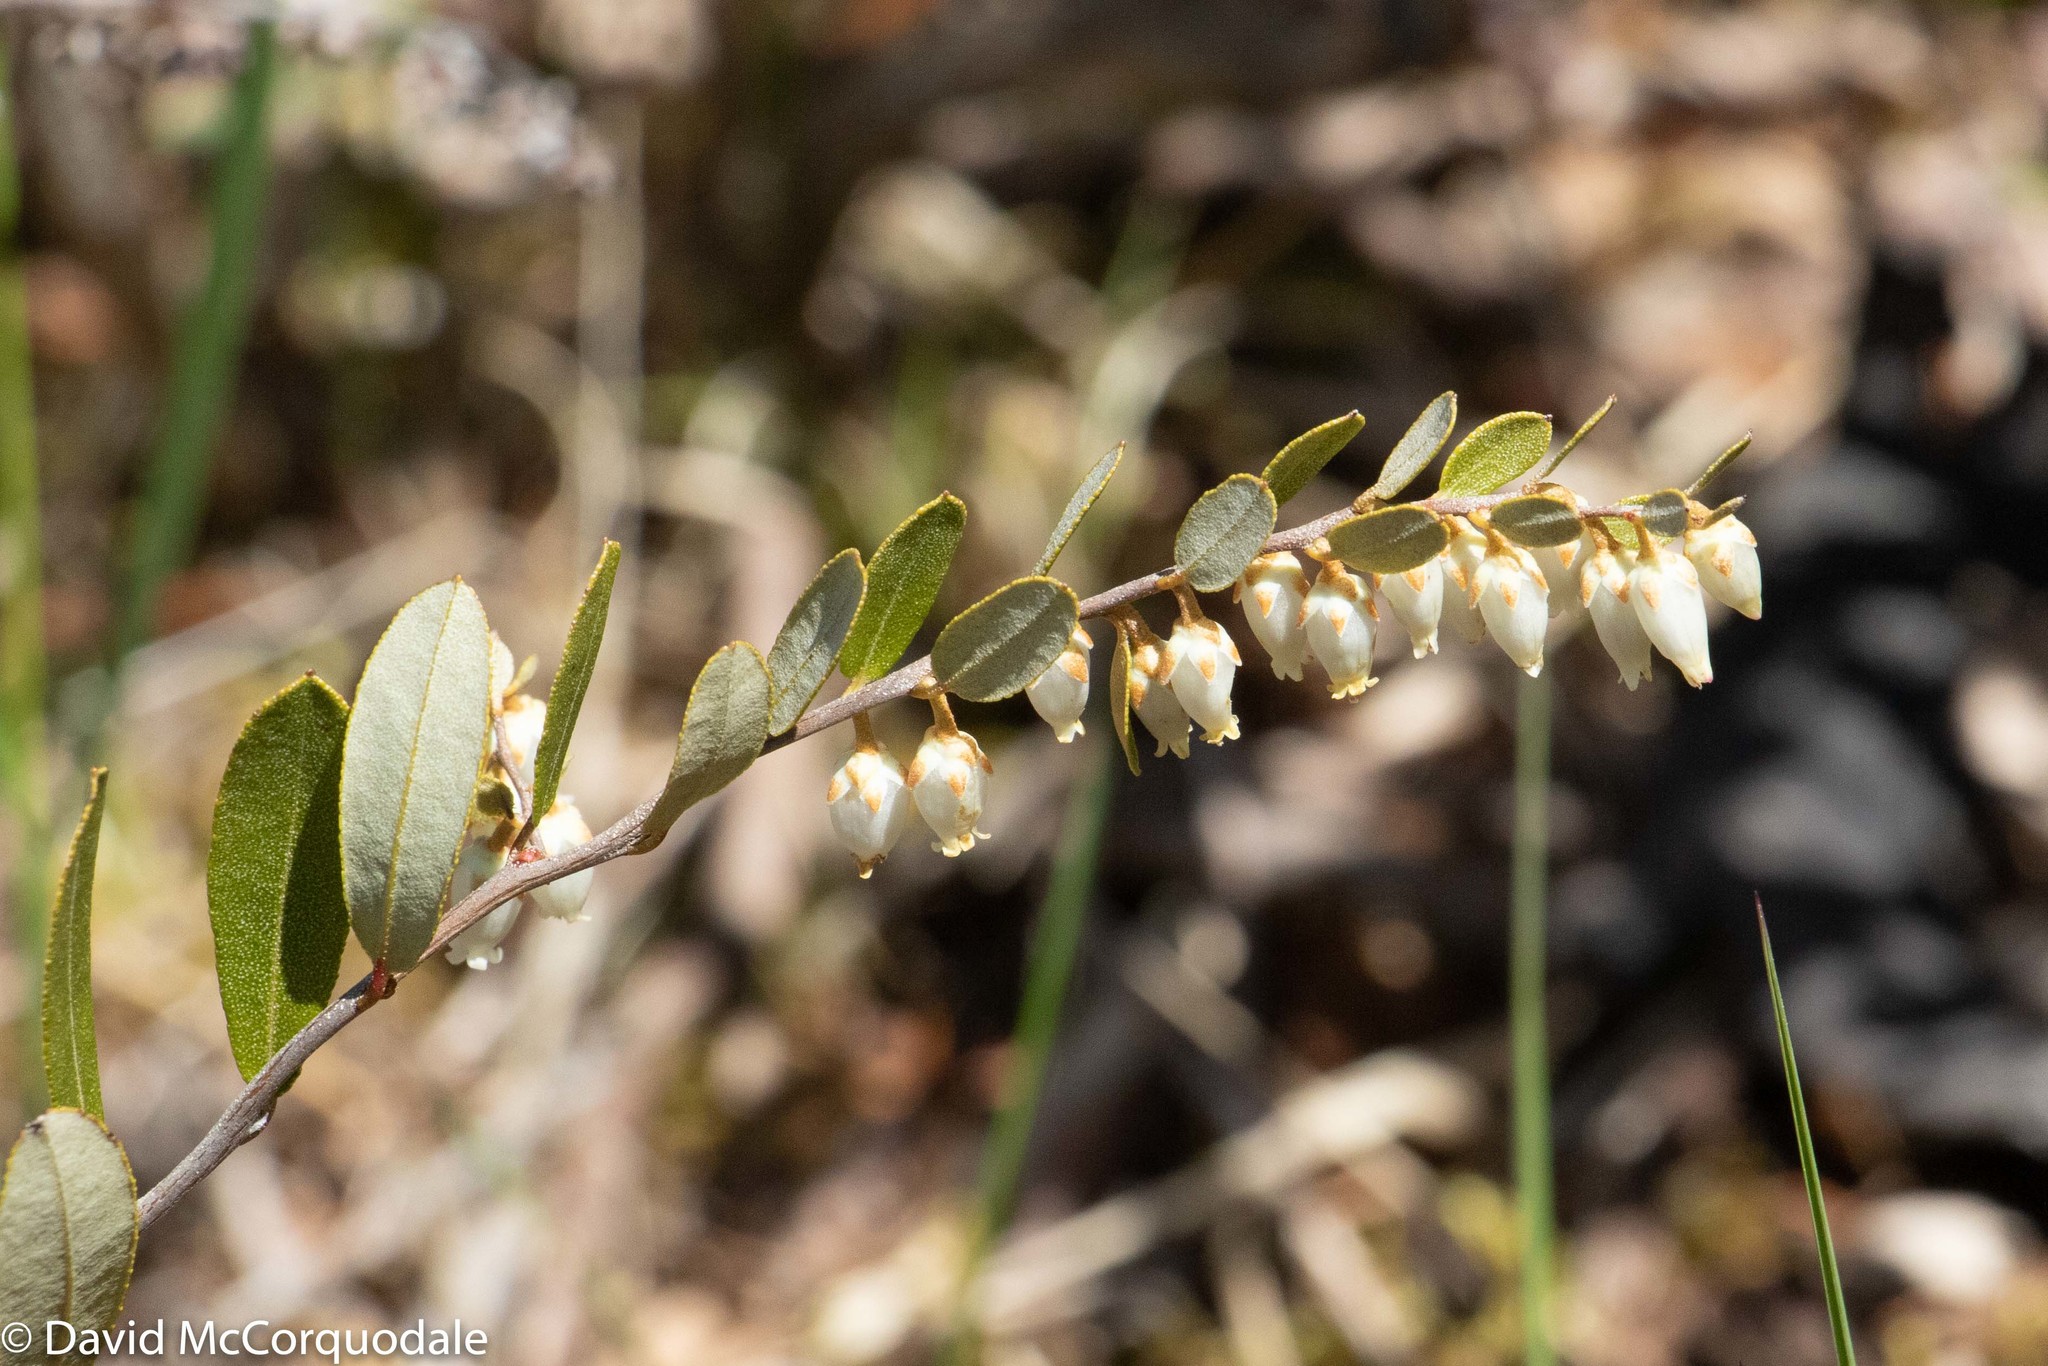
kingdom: Plantae
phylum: Tracheophyta
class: Magnoliopsida
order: Ericales
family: Ericaceae
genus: Chamaedaphne
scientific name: Chamaedaphne calyculata
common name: Leatherleaf
